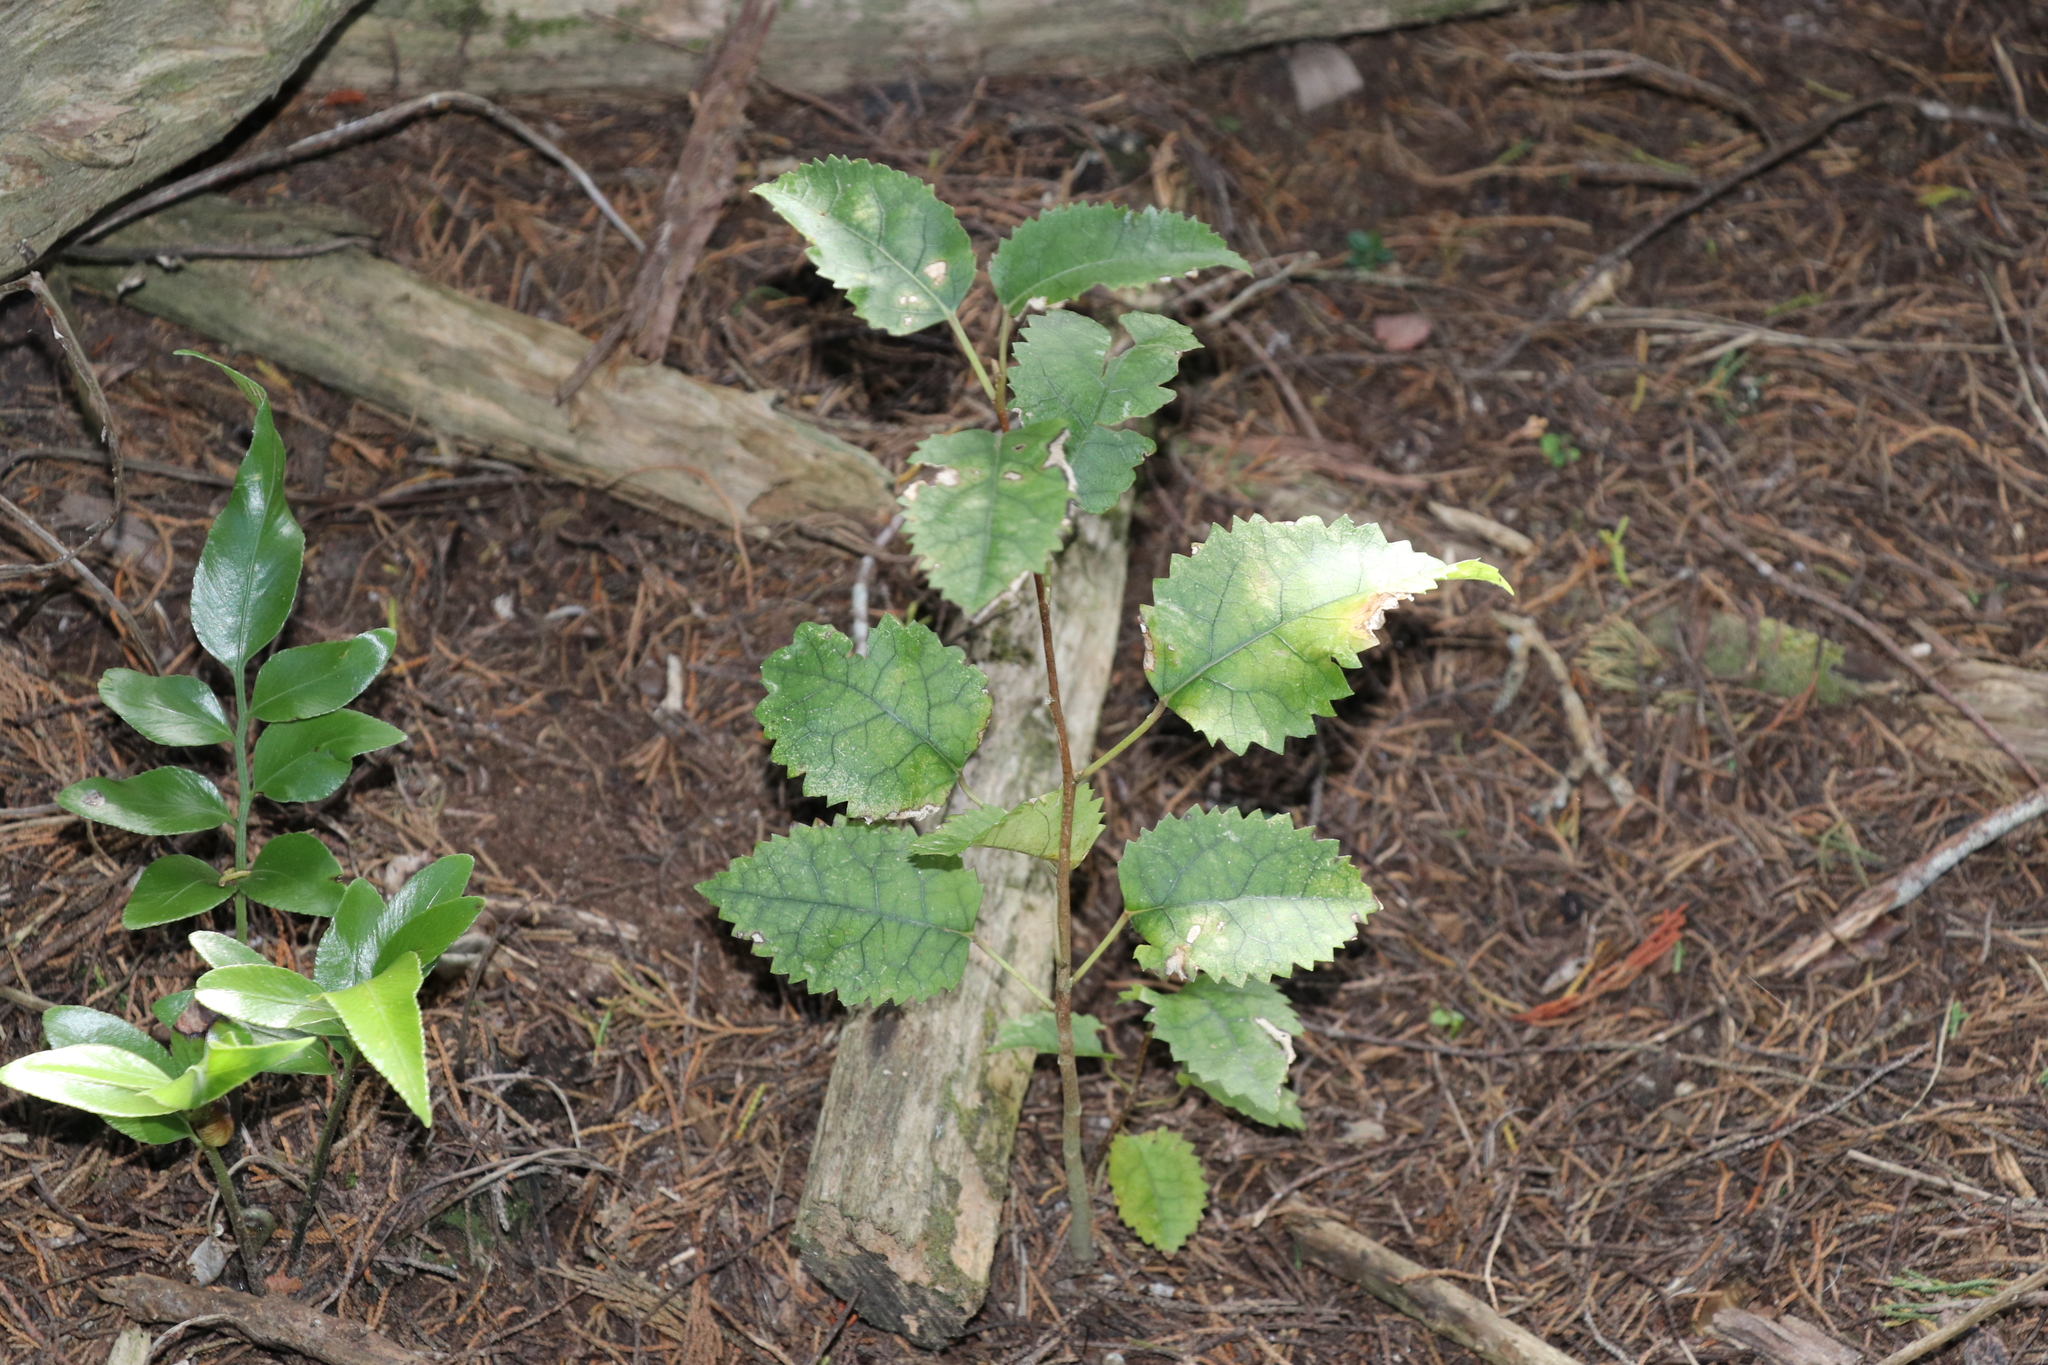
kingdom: Plantae
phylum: Tracheophyta
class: Magnoliopsida
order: Malvales
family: Malvaceae
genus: Hoheria
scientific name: Hoheria populnea
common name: Lacebark
